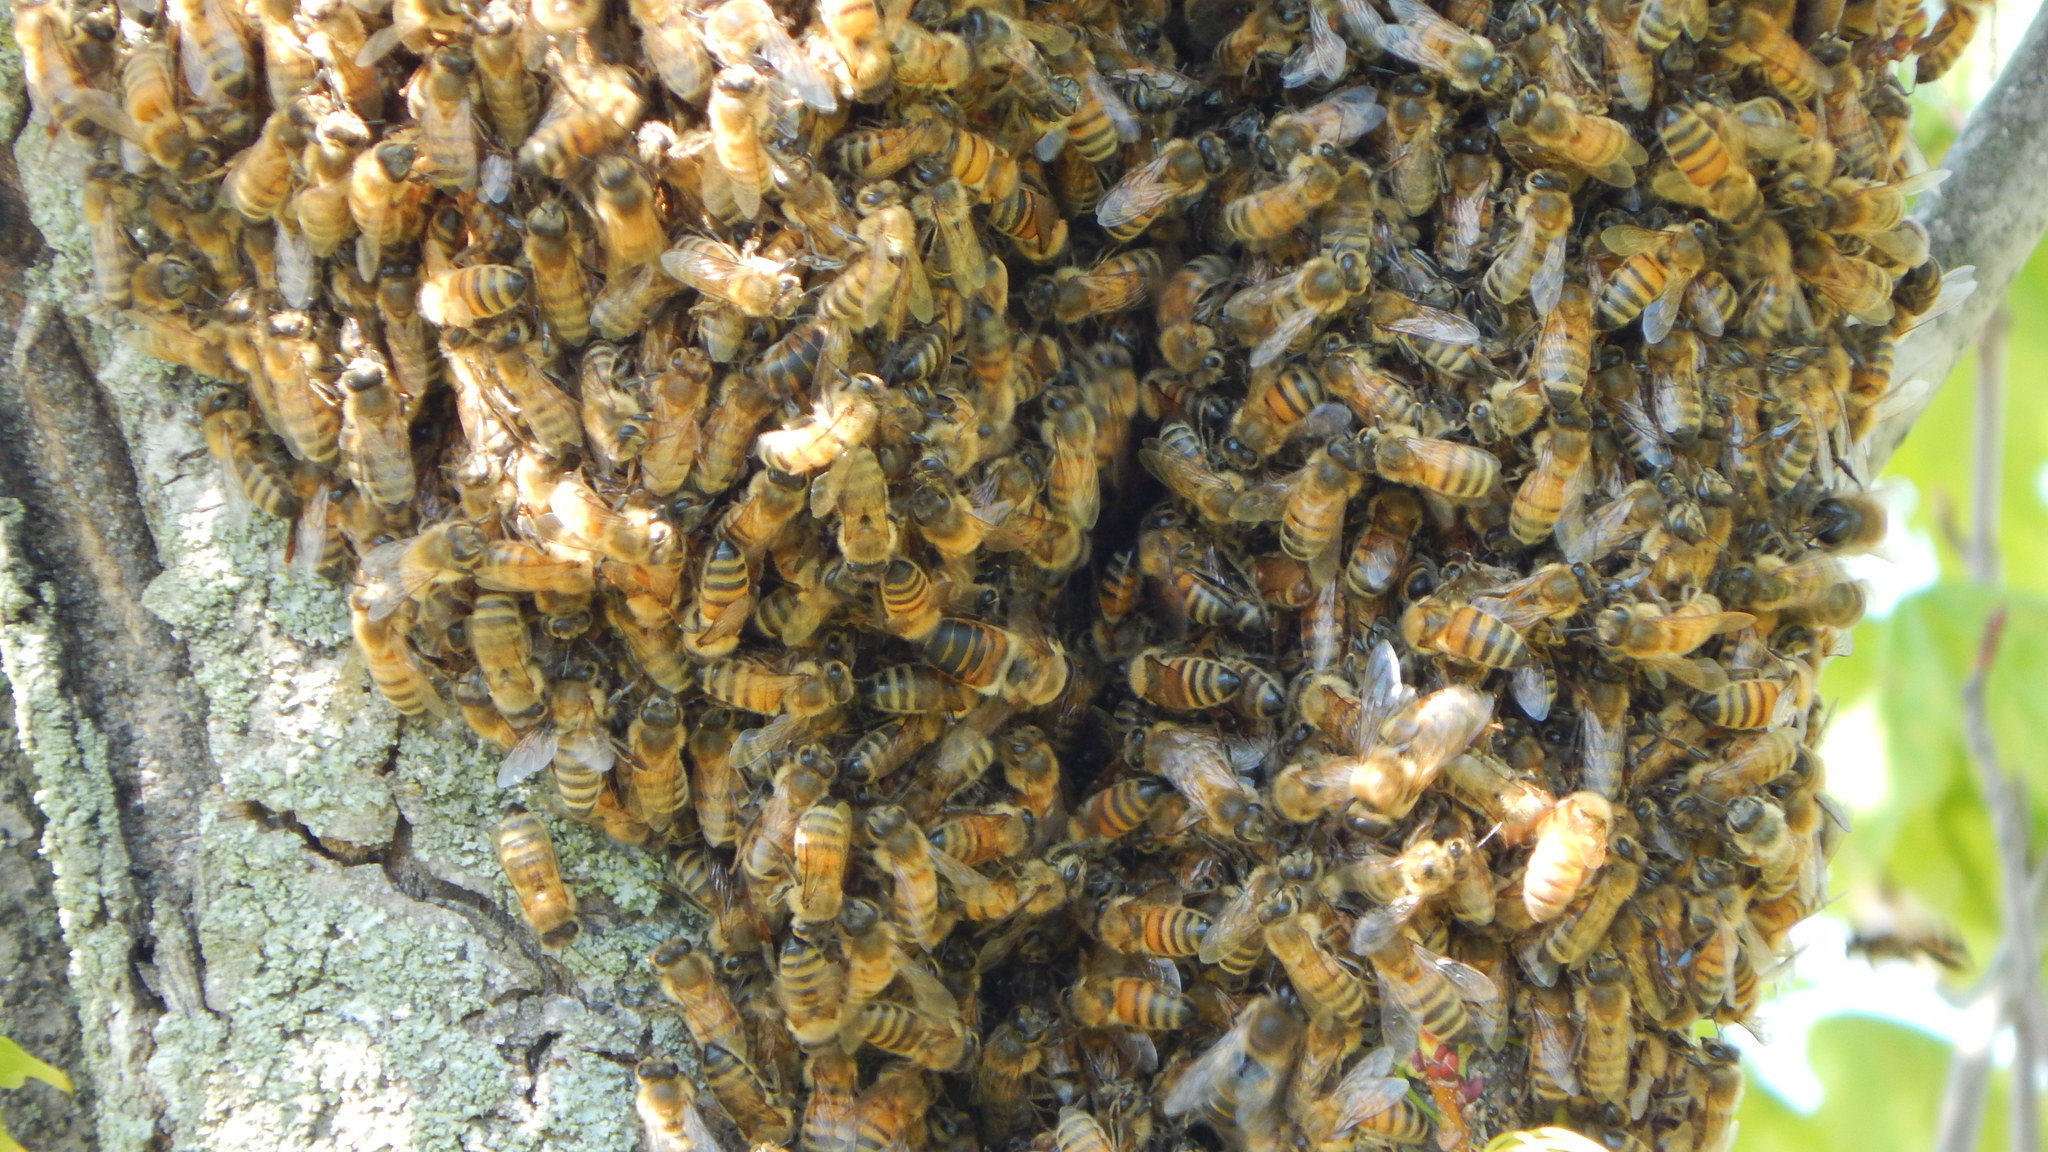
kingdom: Animalia
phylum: Arthropoda
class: Insecta
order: Hymenoptera
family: Apidae
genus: Apis
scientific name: Apis mellifera
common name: Honey bee
